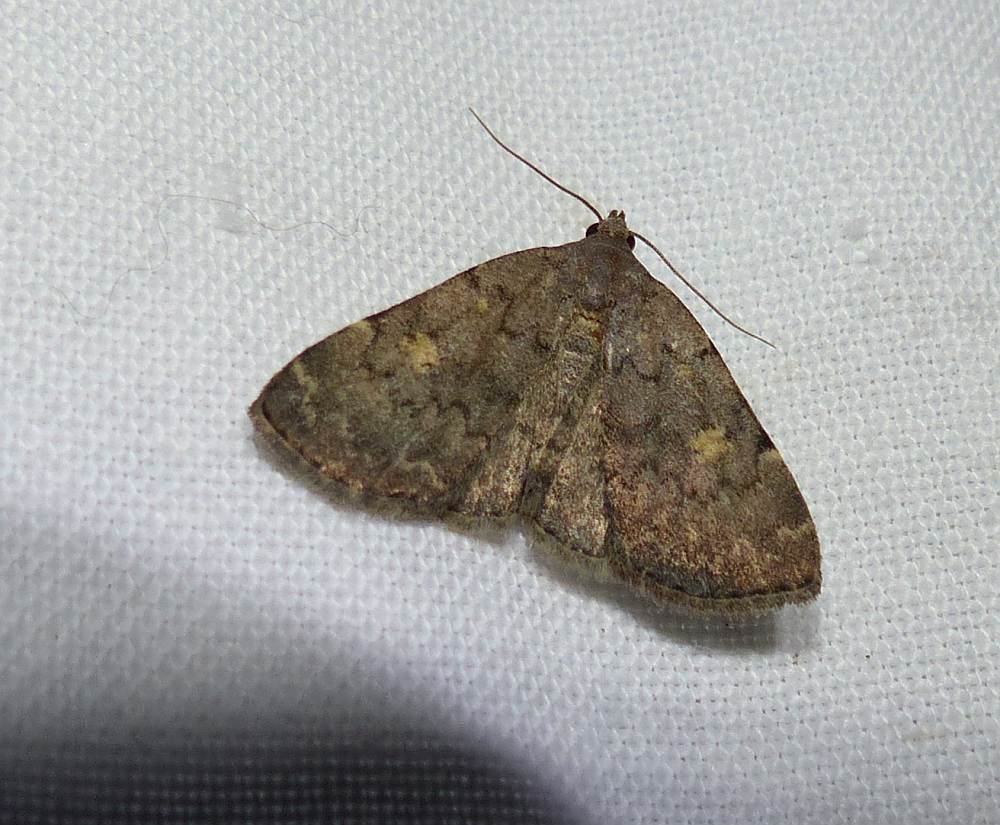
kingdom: Animalia
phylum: Arthropoda
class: Insecta
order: Lepidoptera
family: Erebidae
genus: Idia
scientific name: Idia aemula
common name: Common idia moth
